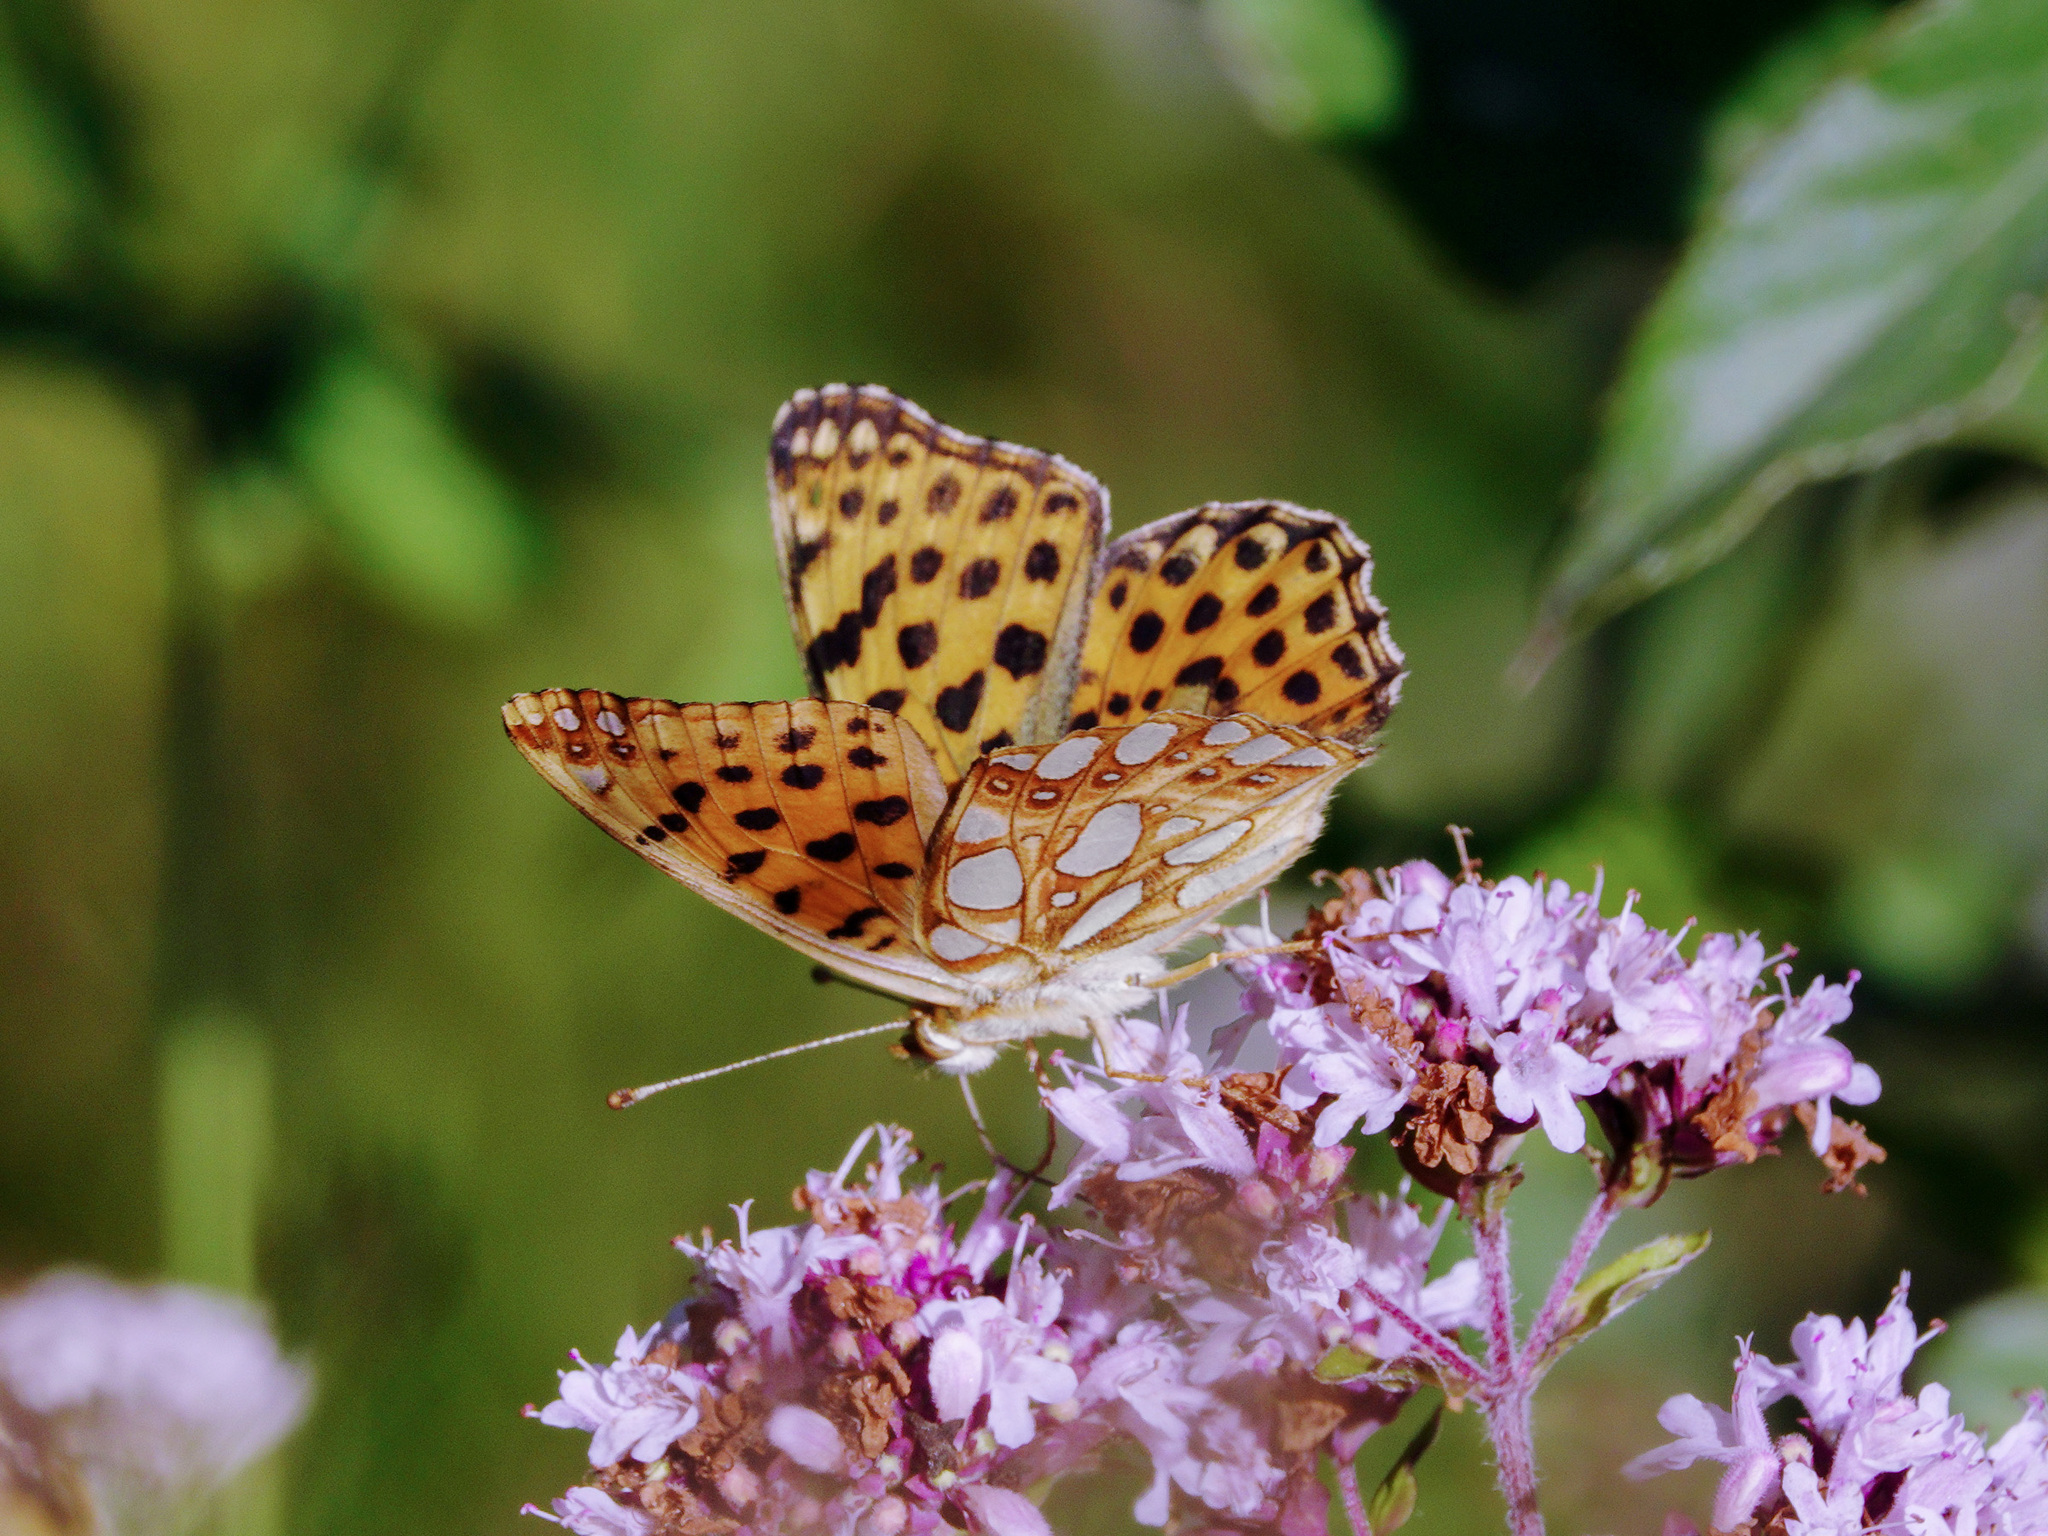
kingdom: Animalia
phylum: Arthropoda
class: Insecta
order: Lepidoptera
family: Nymphalidae
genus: Issoria
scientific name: Issoria lathonia
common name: Queen of spain fritillary
